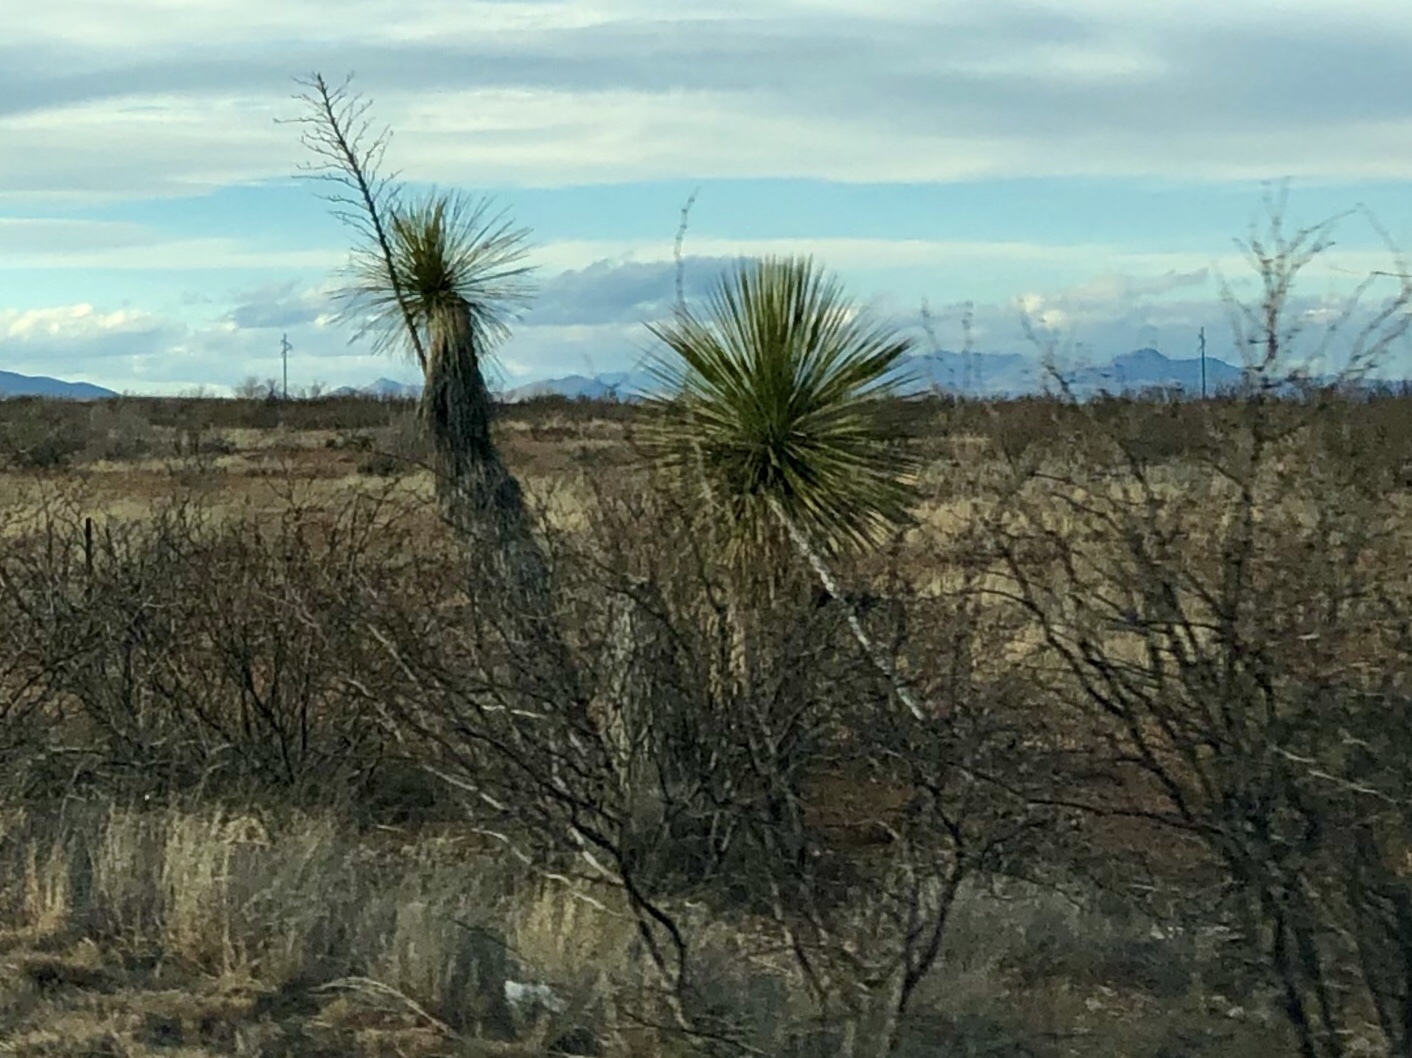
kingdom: Plantae
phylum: Tracheophyta
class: Liliopsida
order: Asparagales
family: Asparagaceae
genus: Yucca
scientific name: Yucca elata
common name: Palmella
